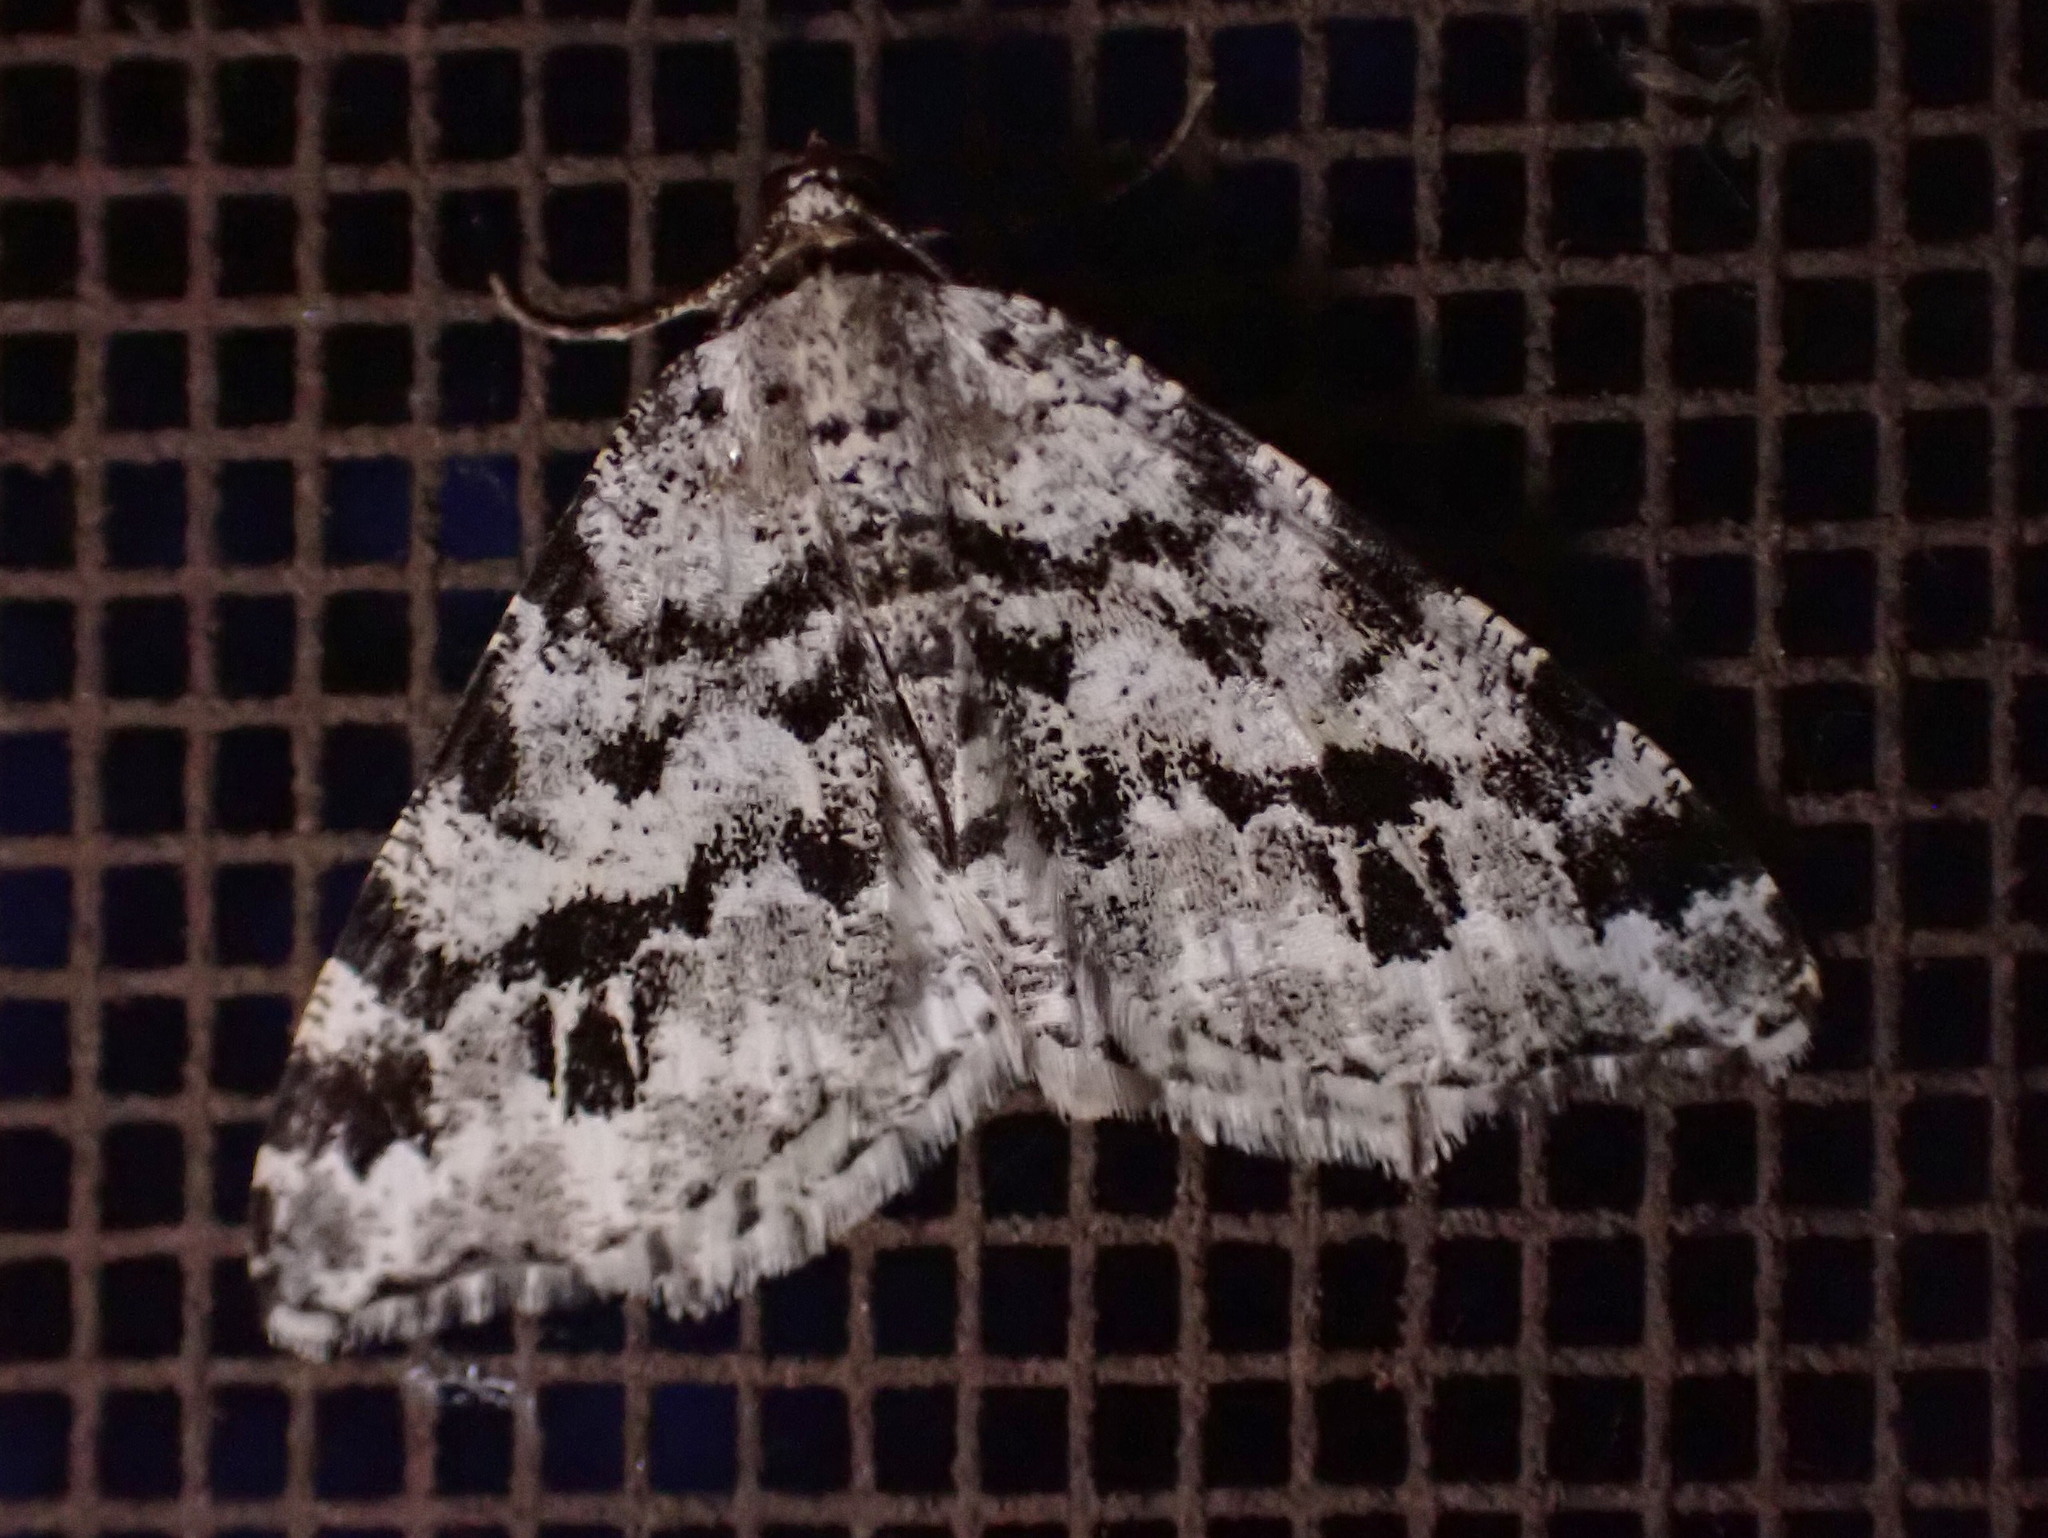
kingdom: Animalia
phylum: Arthropoda
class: Insecta
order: Lepidoptera
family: Geometridae
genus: Macaria
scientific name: Macaria oweni
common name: Owen's angle
